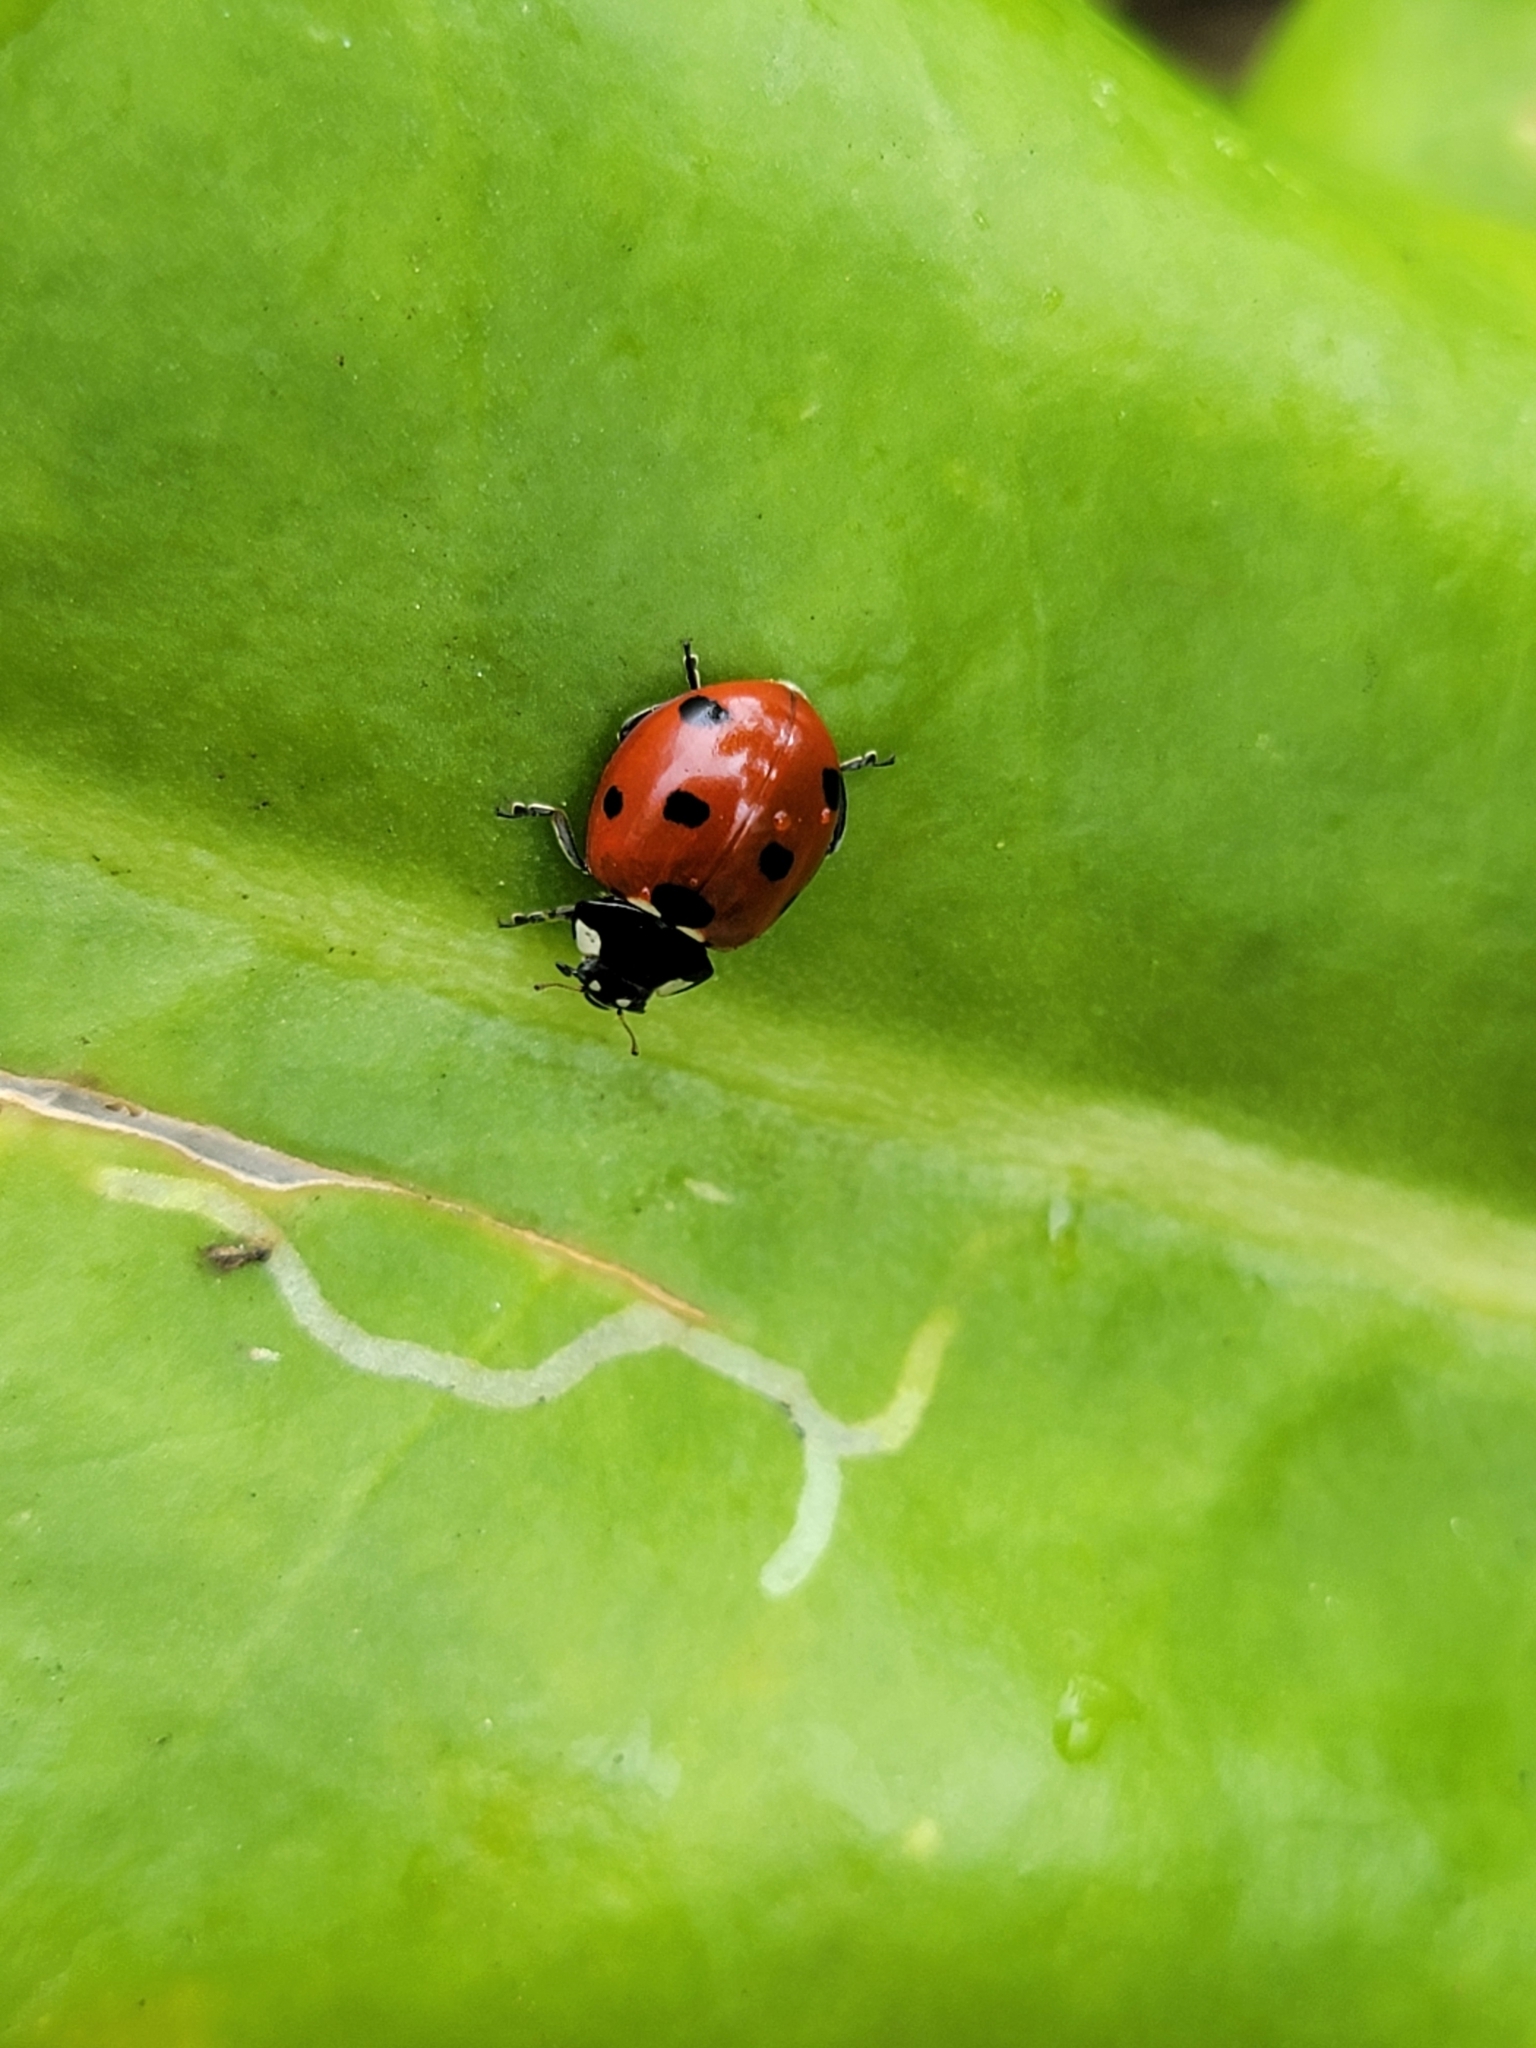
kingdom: Animalia
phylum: Arthropoda
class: Insecta
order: Coleoptera
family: Coccinellidae
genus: Coccinella
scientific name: Coccinella septempunctata
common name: Sevenspotted lady beetle
